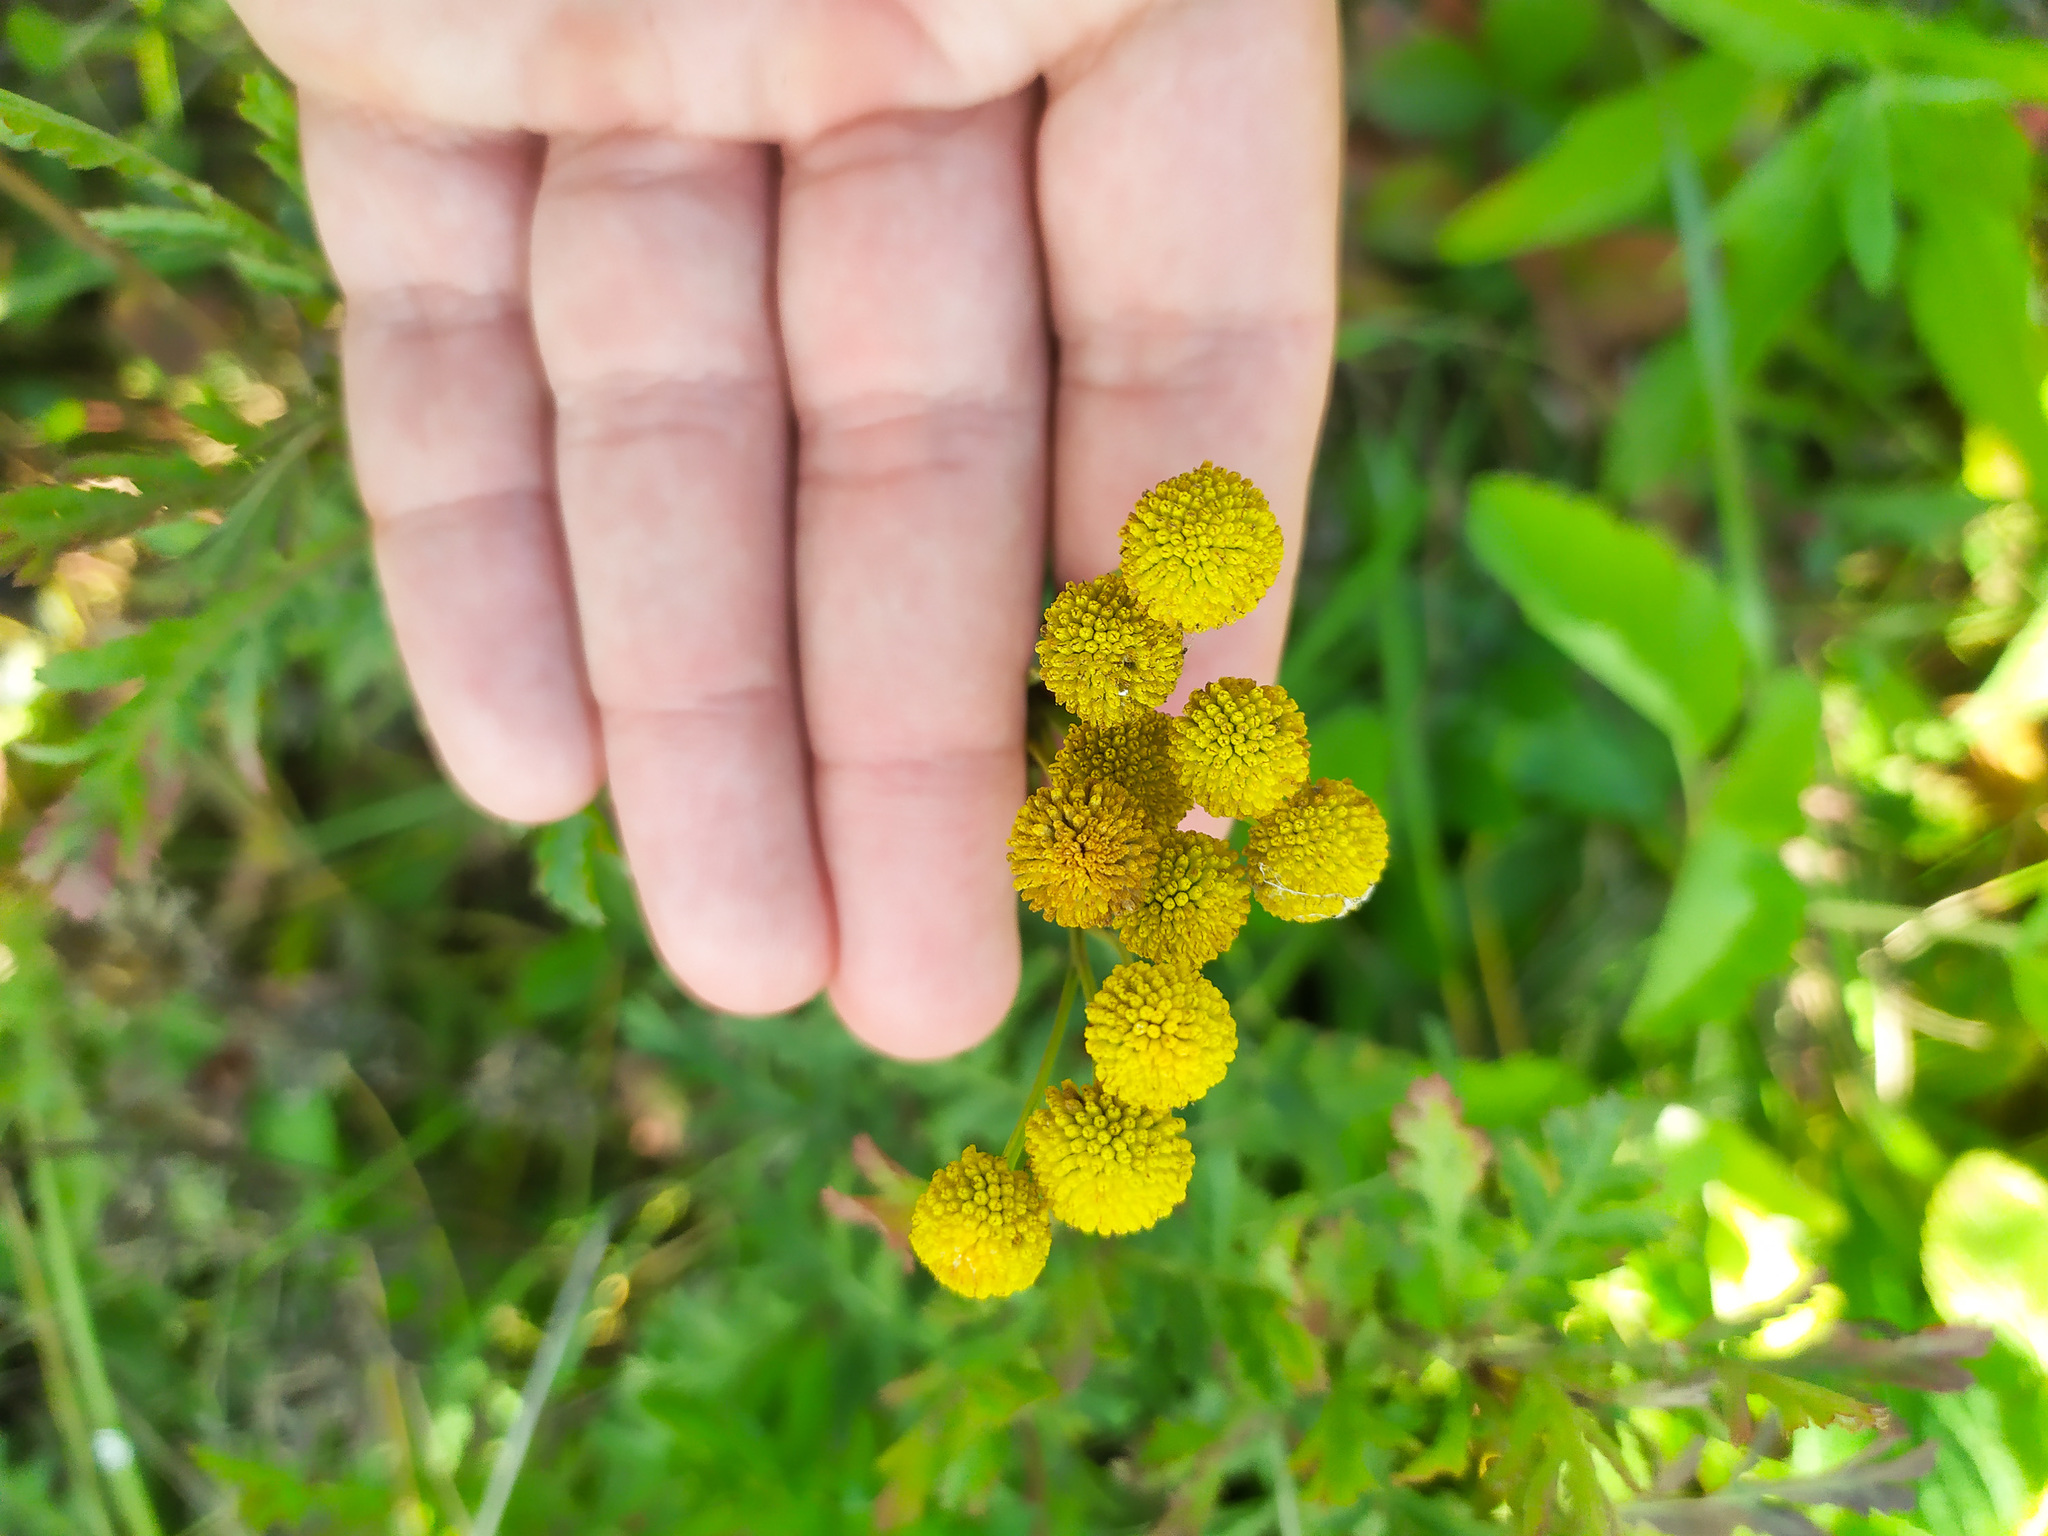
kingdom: Plantae
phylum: Tracheophyta
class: Magnoliopsida
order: Asterales
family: Asteraceae
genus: Tanacetum
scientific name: Tanacetum vulgare
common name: Common tansy
